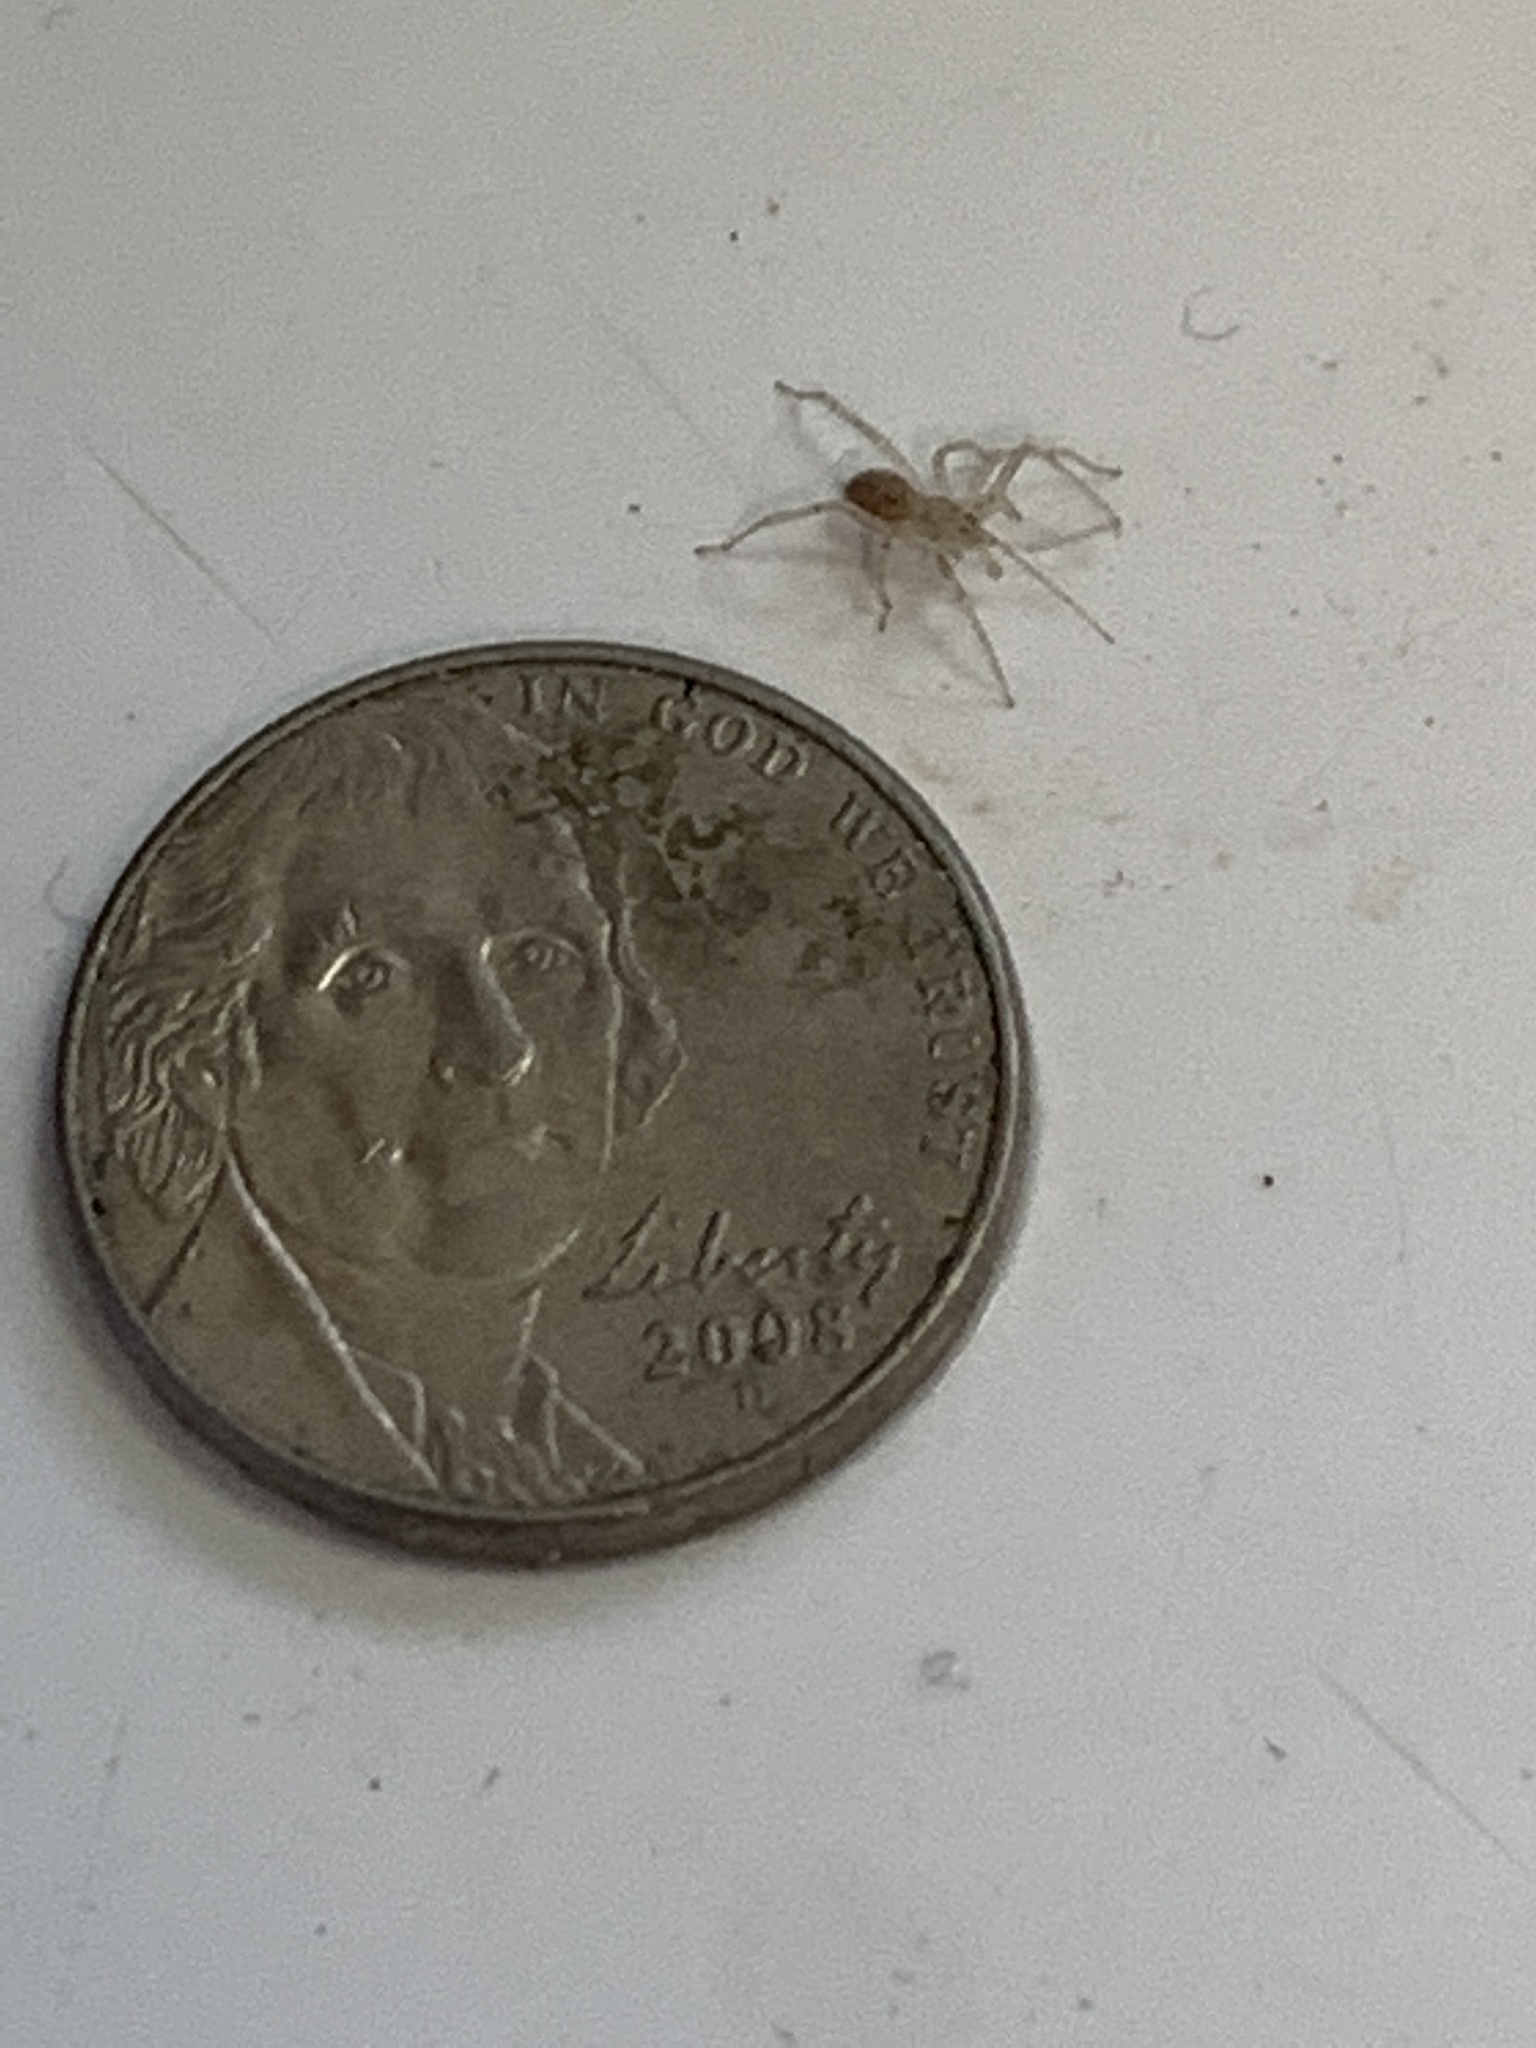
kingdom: Animalia
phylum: Arthropoda
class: Arachnida
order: Araneae
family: Anyphaenidae
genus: Wulfila
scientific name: Wulfila saltabundus
